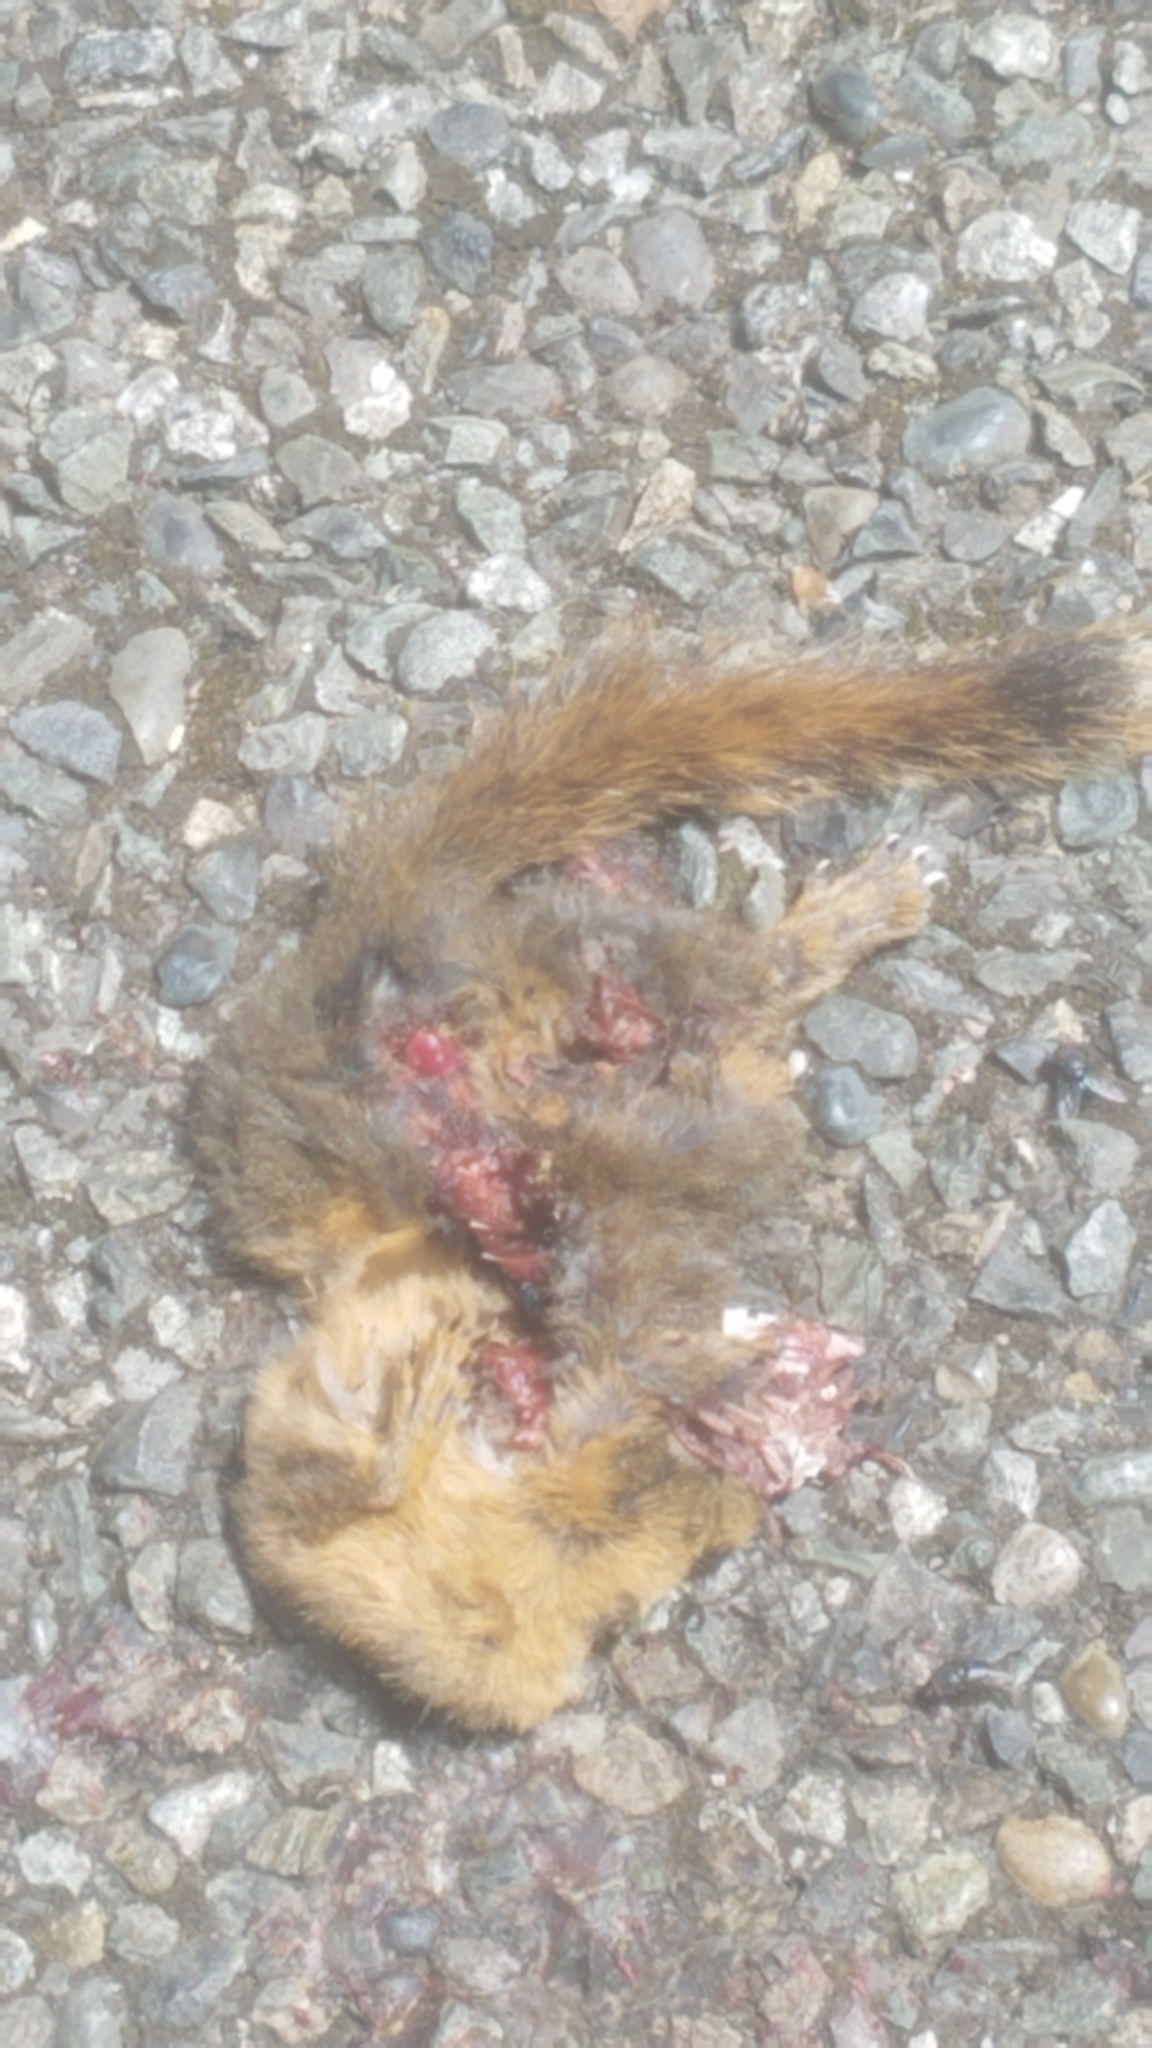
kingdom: Animalia
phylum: Chordata
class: Mammalia
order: Rodentia
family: Sciuridae
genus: Tamiasciurus
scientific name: Tamiasciurus douglasii
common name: Douglas's squirrel
